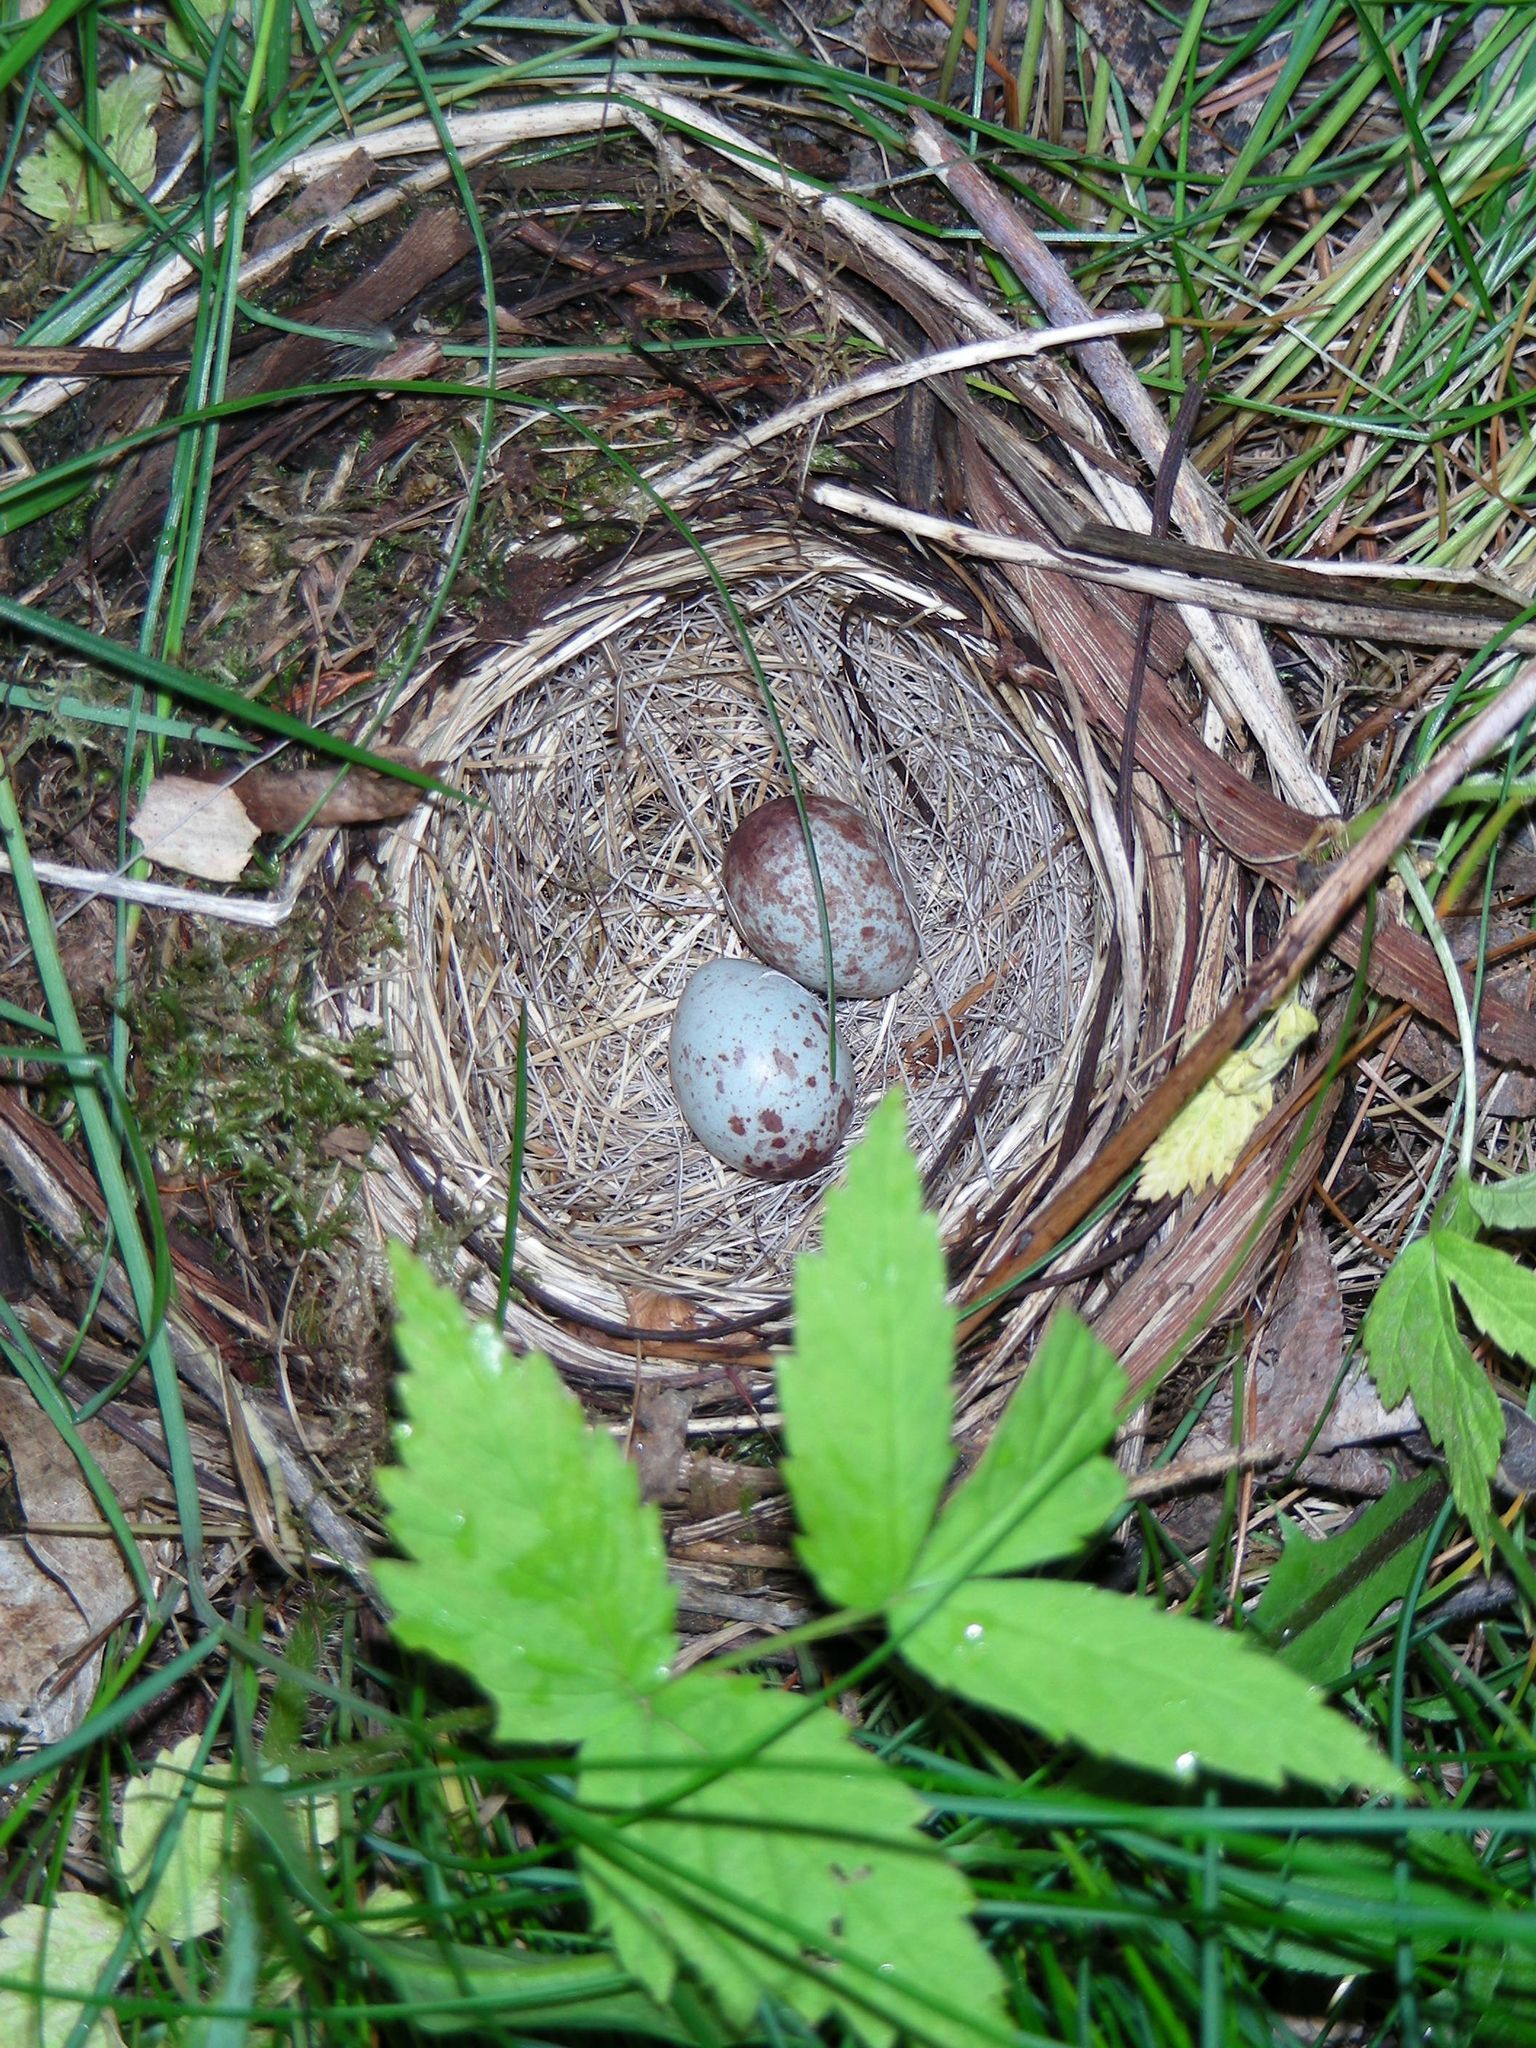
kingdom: Animalia
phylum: Chordata
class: Aves
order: Passeriformes
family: Passerellidae
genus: Zonotrichia
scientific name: Zonotrichia albicollis
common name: White-throated sparrow
